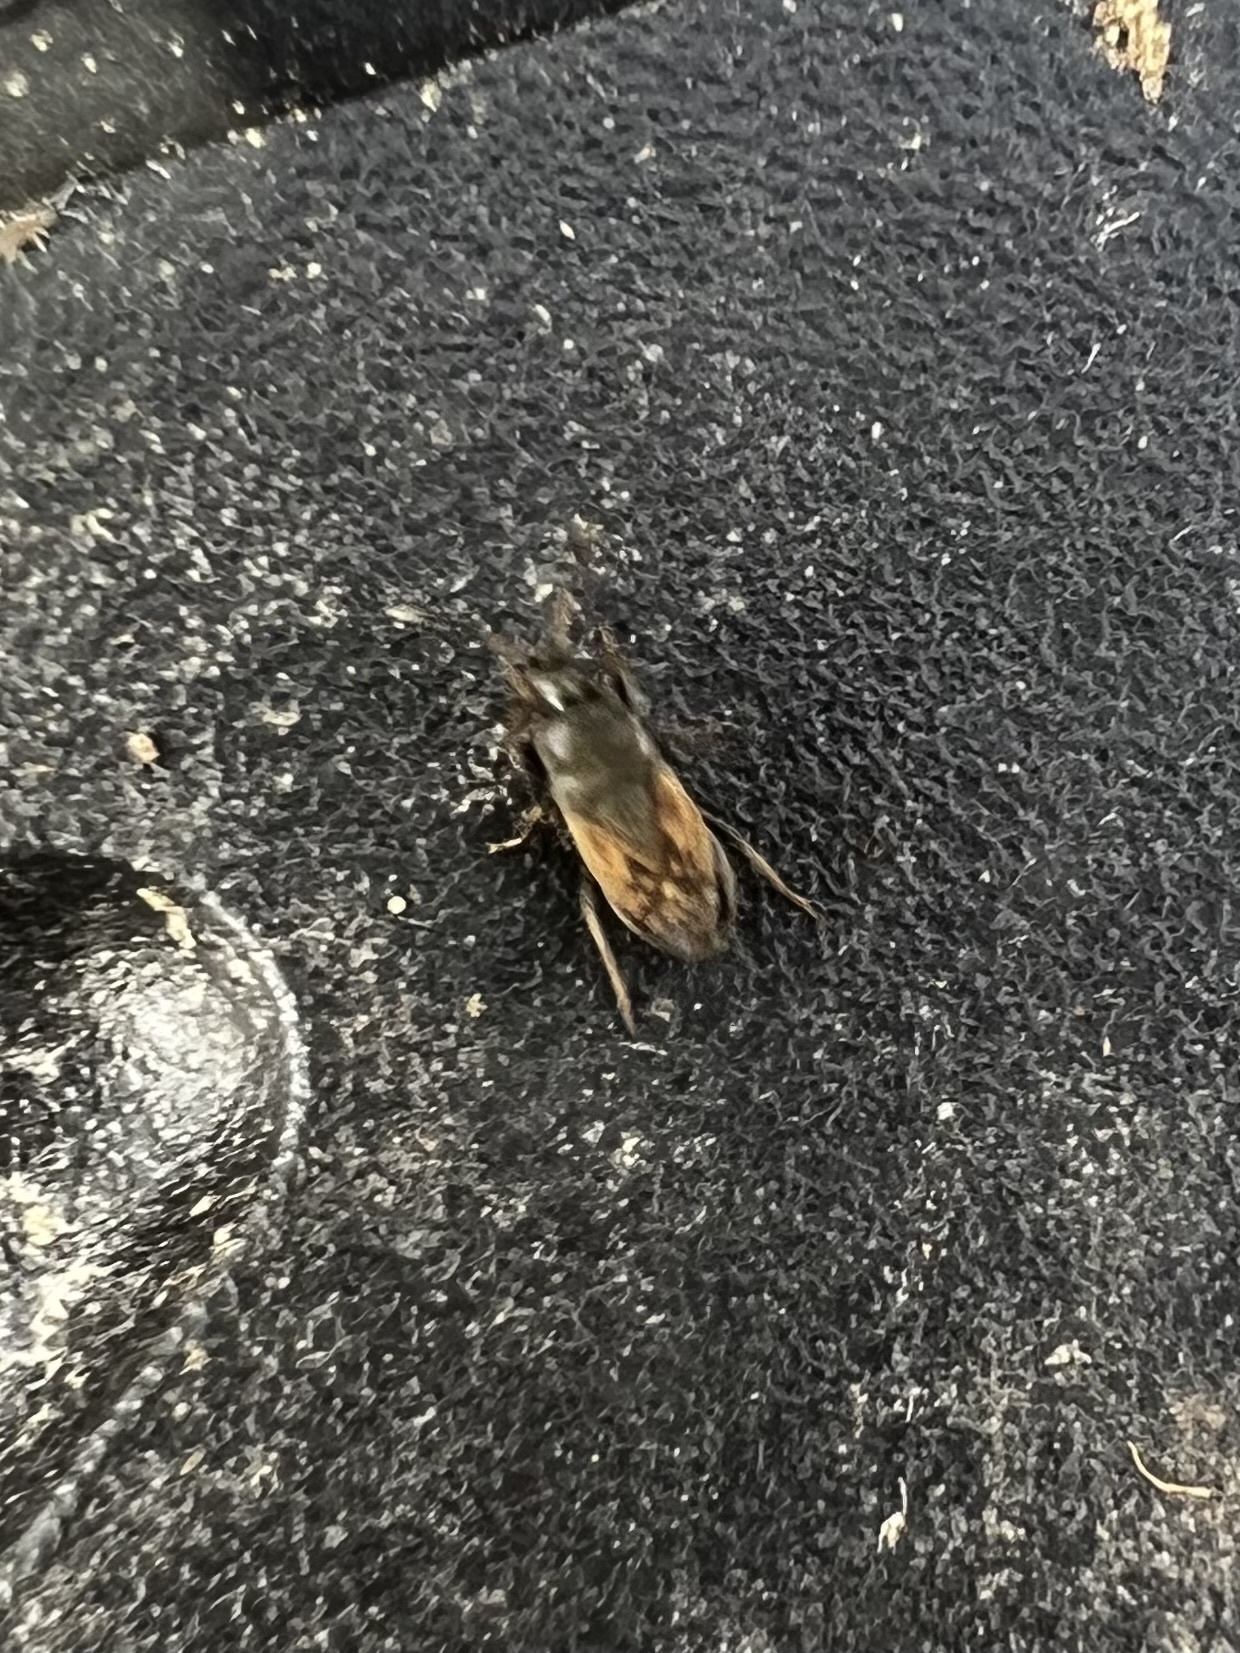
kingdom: Animalia
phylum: Arthropoda
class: Insecta
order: Hemiptera
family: Rhyparochromidae
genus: Megalonotus
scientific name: Megalonotus sabulicola
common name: Seed bug
